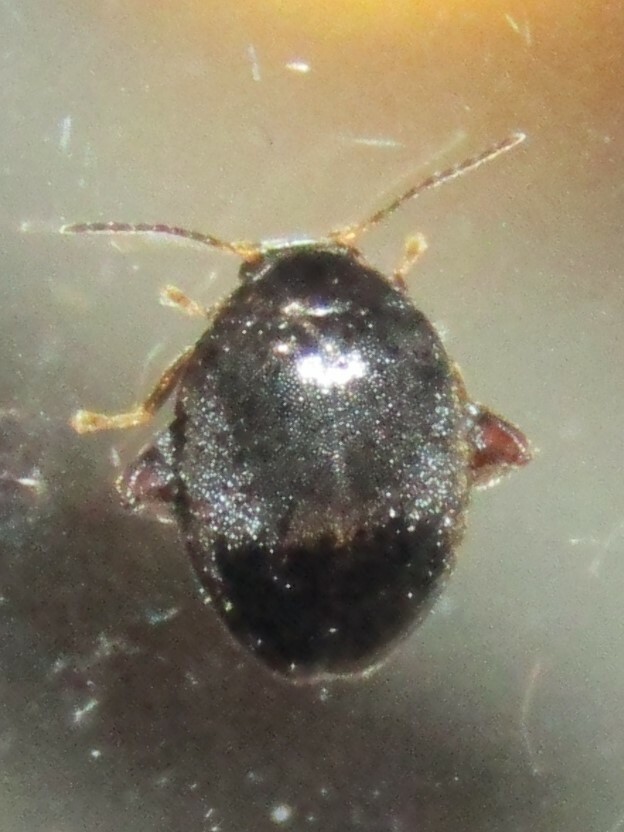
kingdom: Animalia
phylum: Arthropoda
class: Insecta
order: Coleoptera
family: Scirtidae
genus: Scirtes
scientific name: Scirtes tibialis
